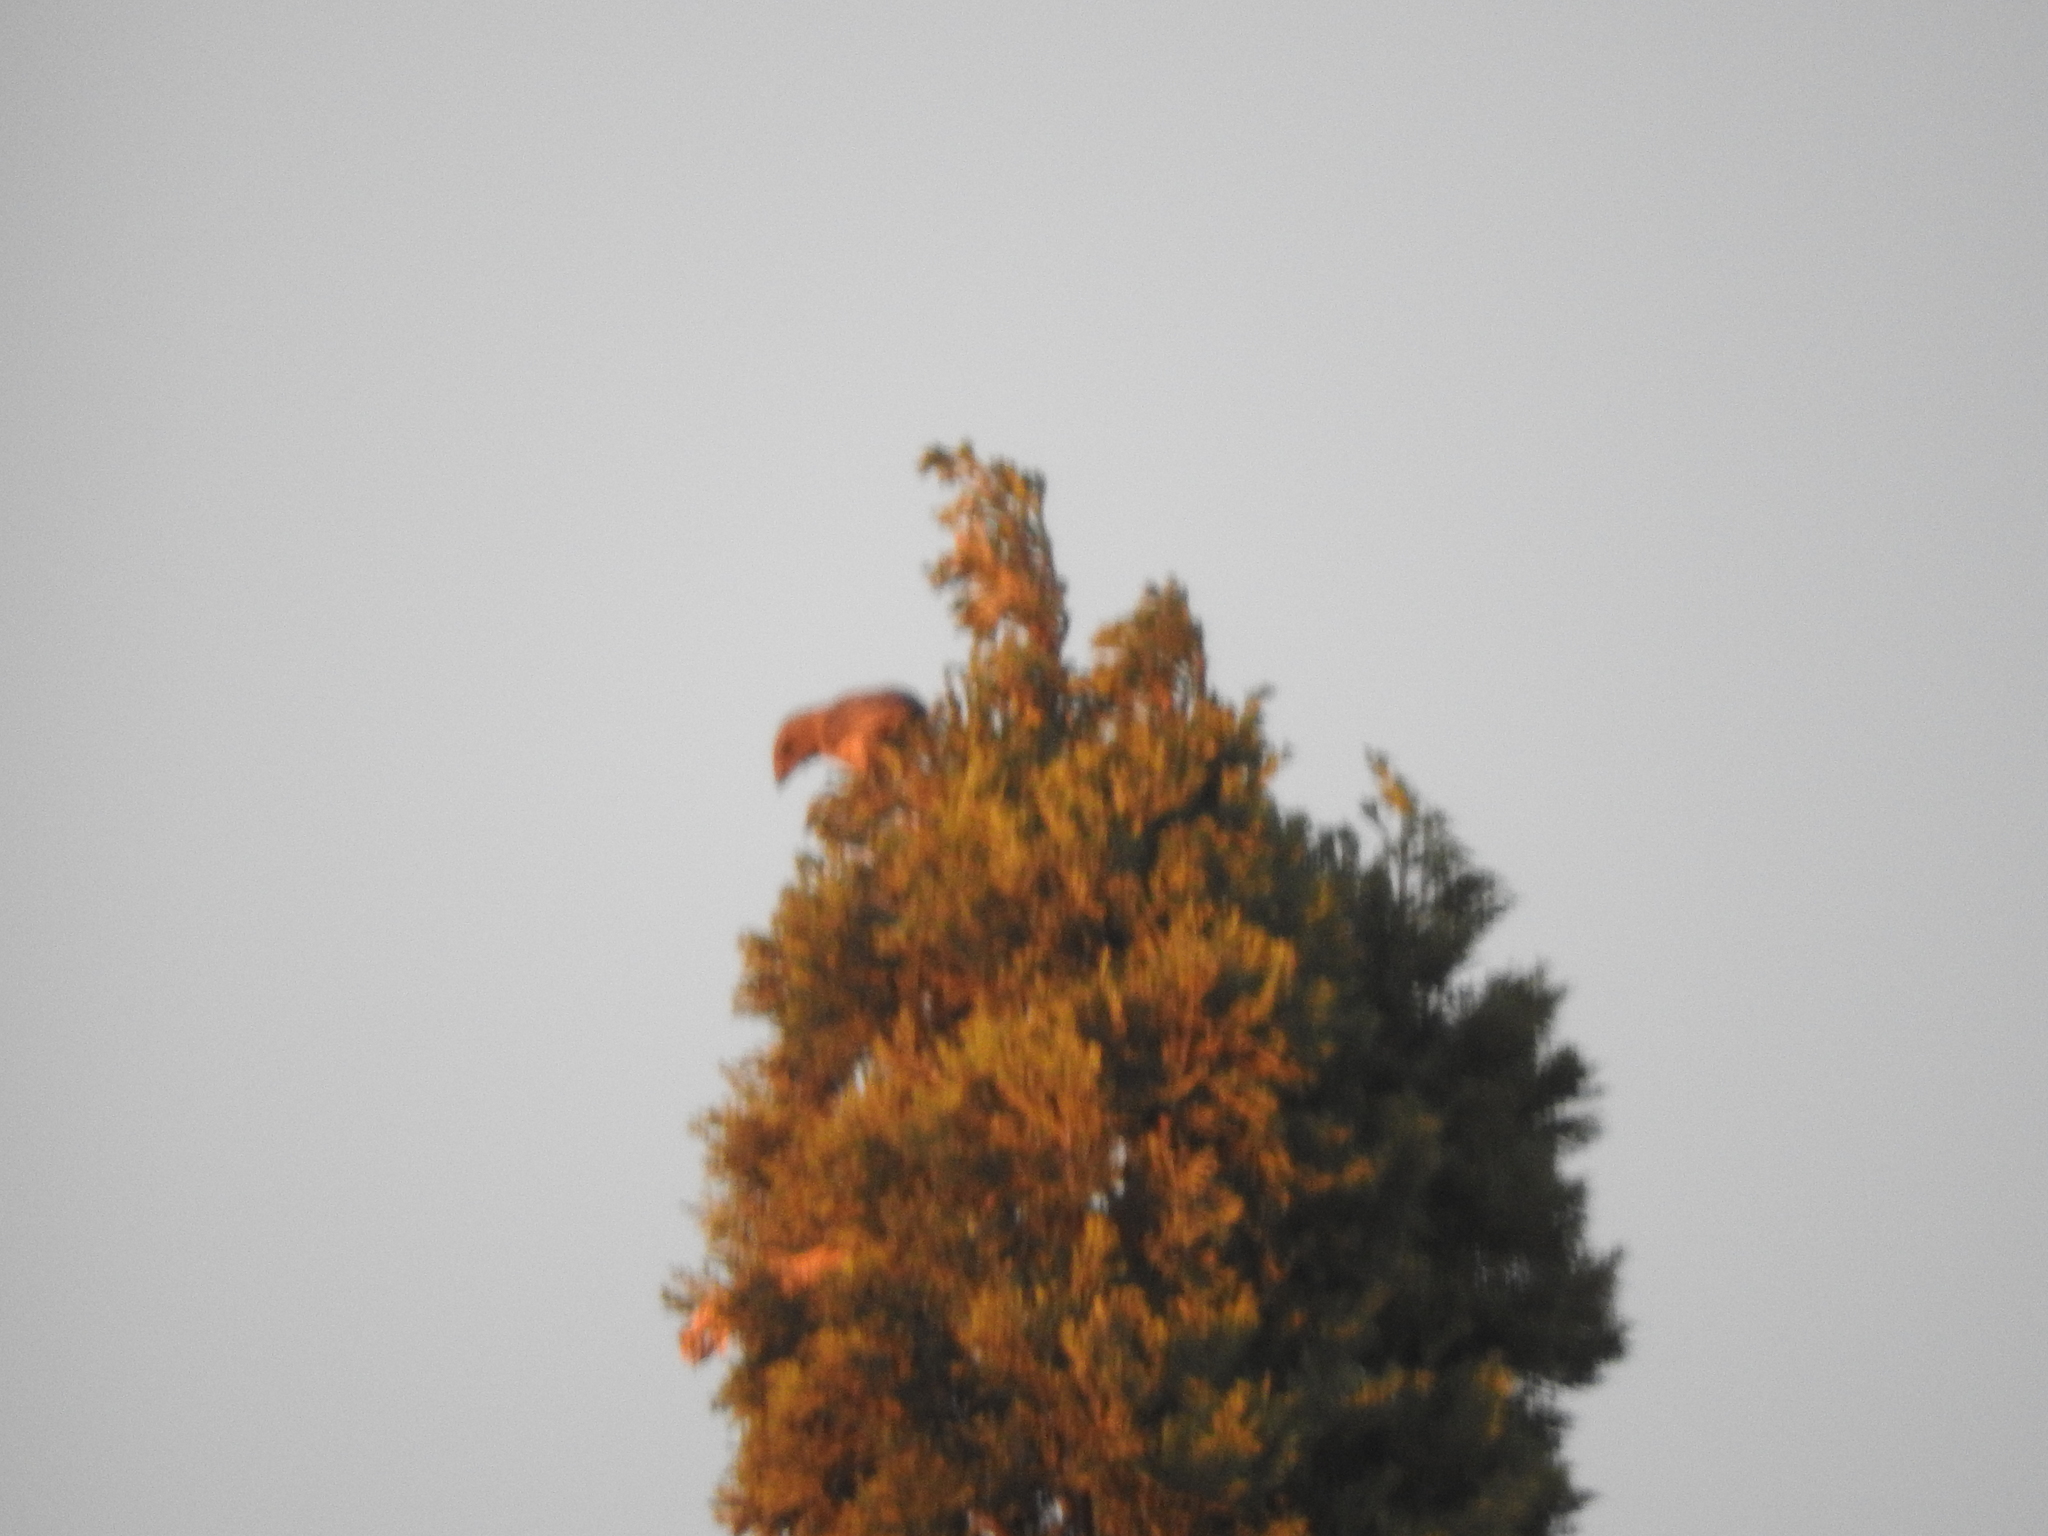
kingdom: Animalia
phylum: Chordata
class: Aves
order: Passeriformes
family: Fringillidae
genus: Haemorhous
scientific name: Haemorhous mexicanus
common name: House finch
